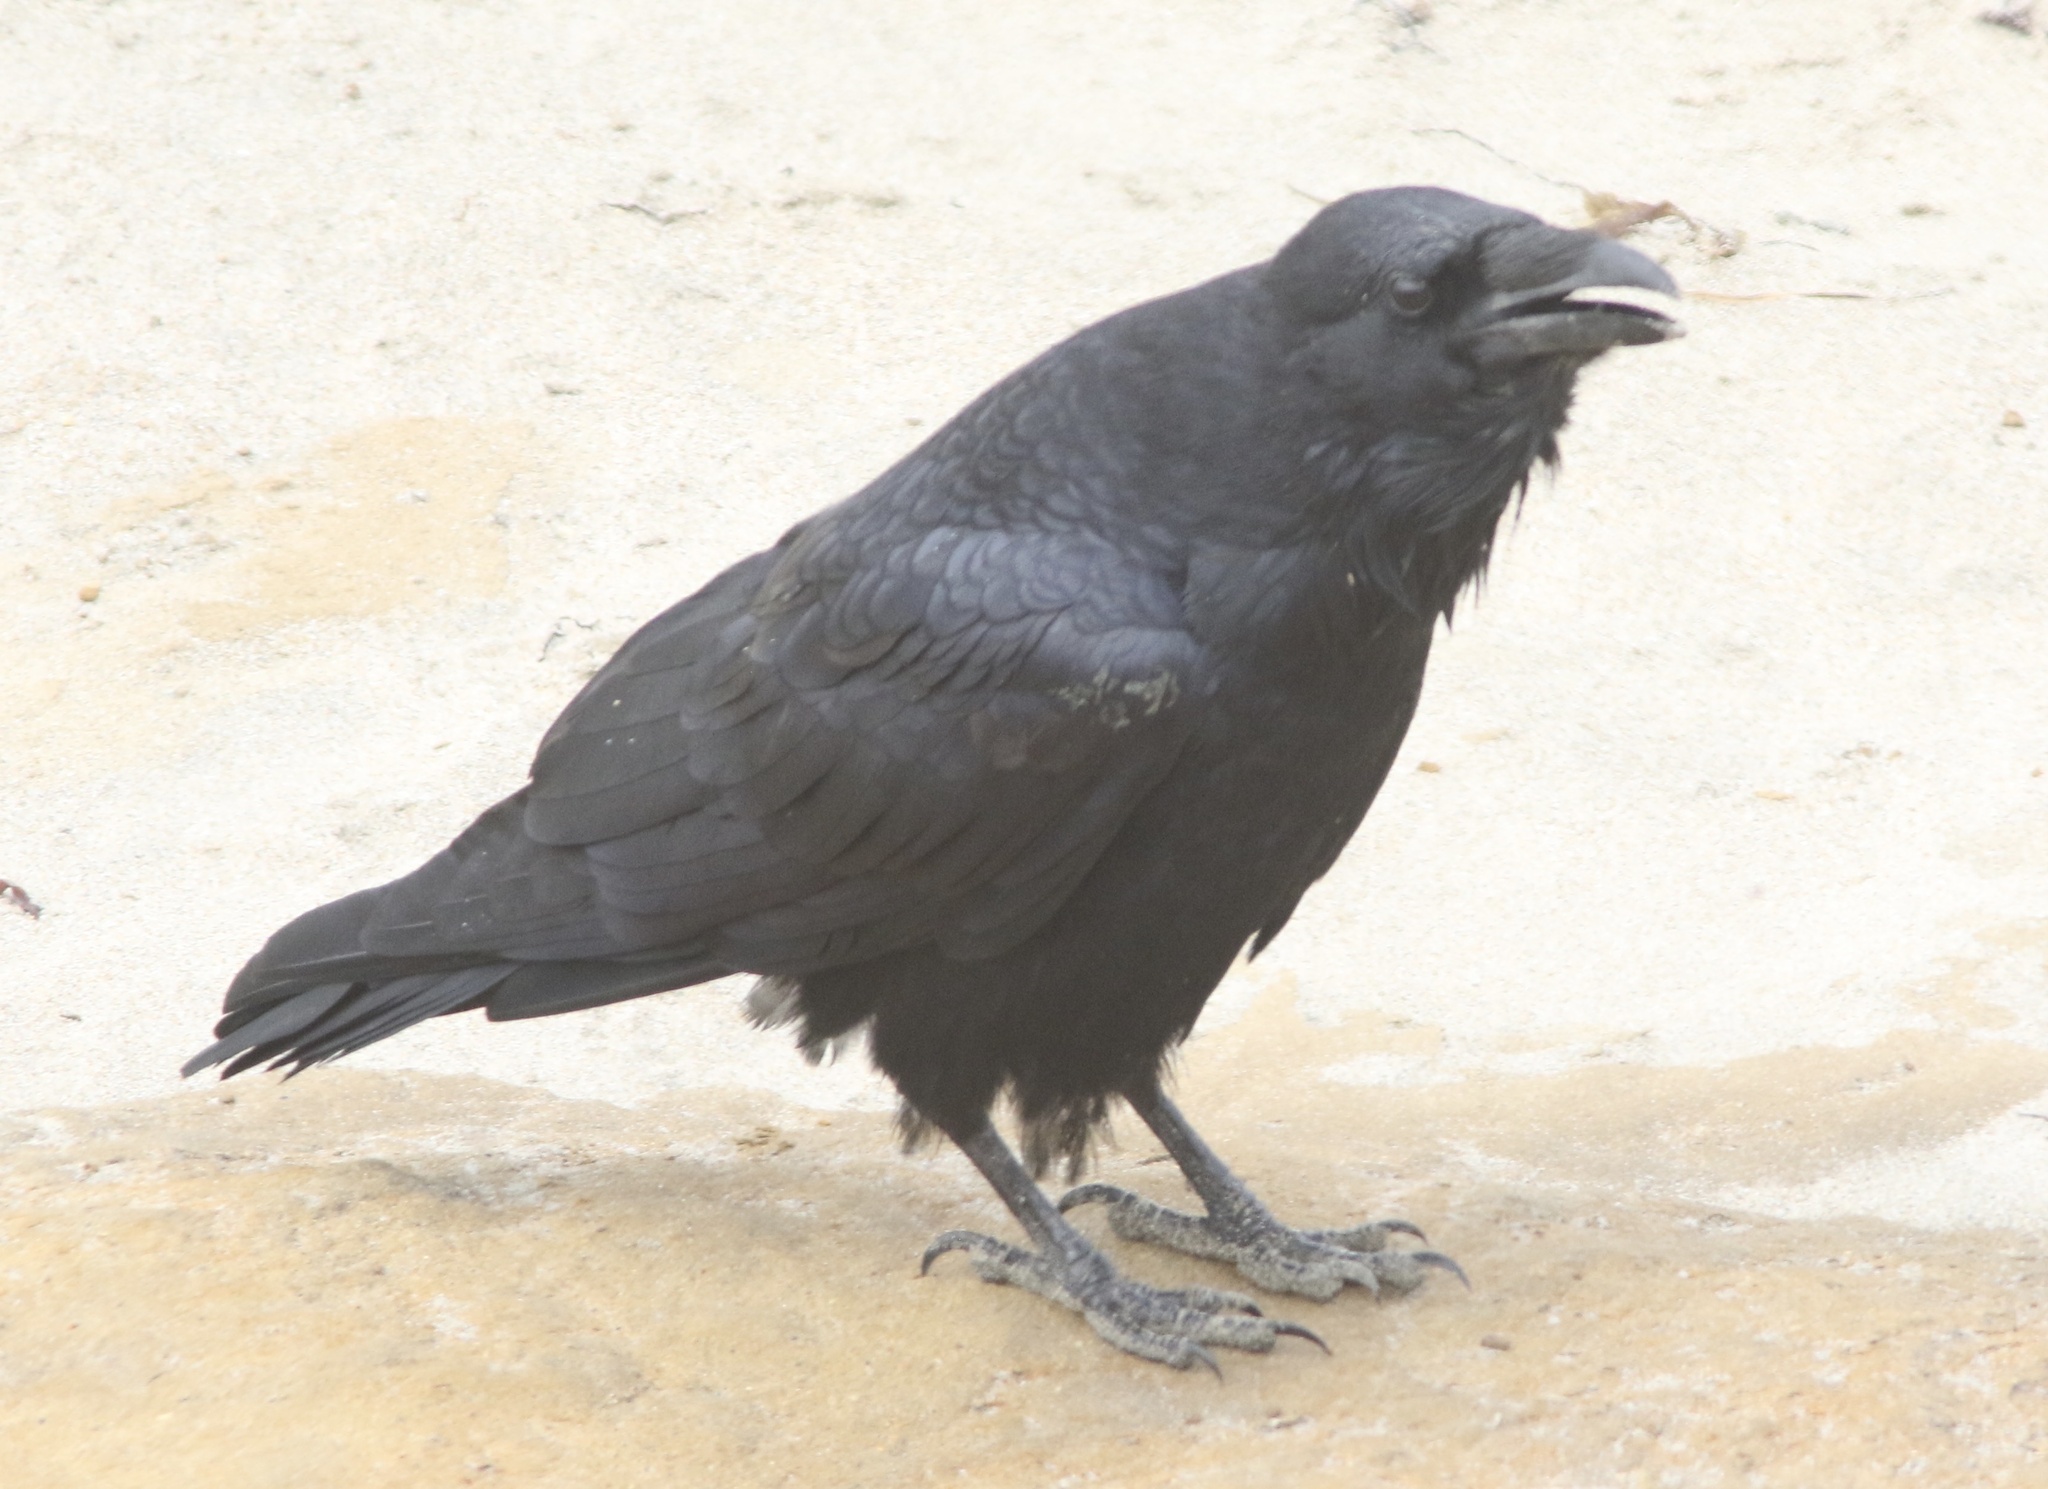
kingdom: Animalia
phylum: Chordata
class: Aves
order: Passeriformes
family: Corvidae
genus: Corvus
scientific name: Corvus corax
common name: Common raven
